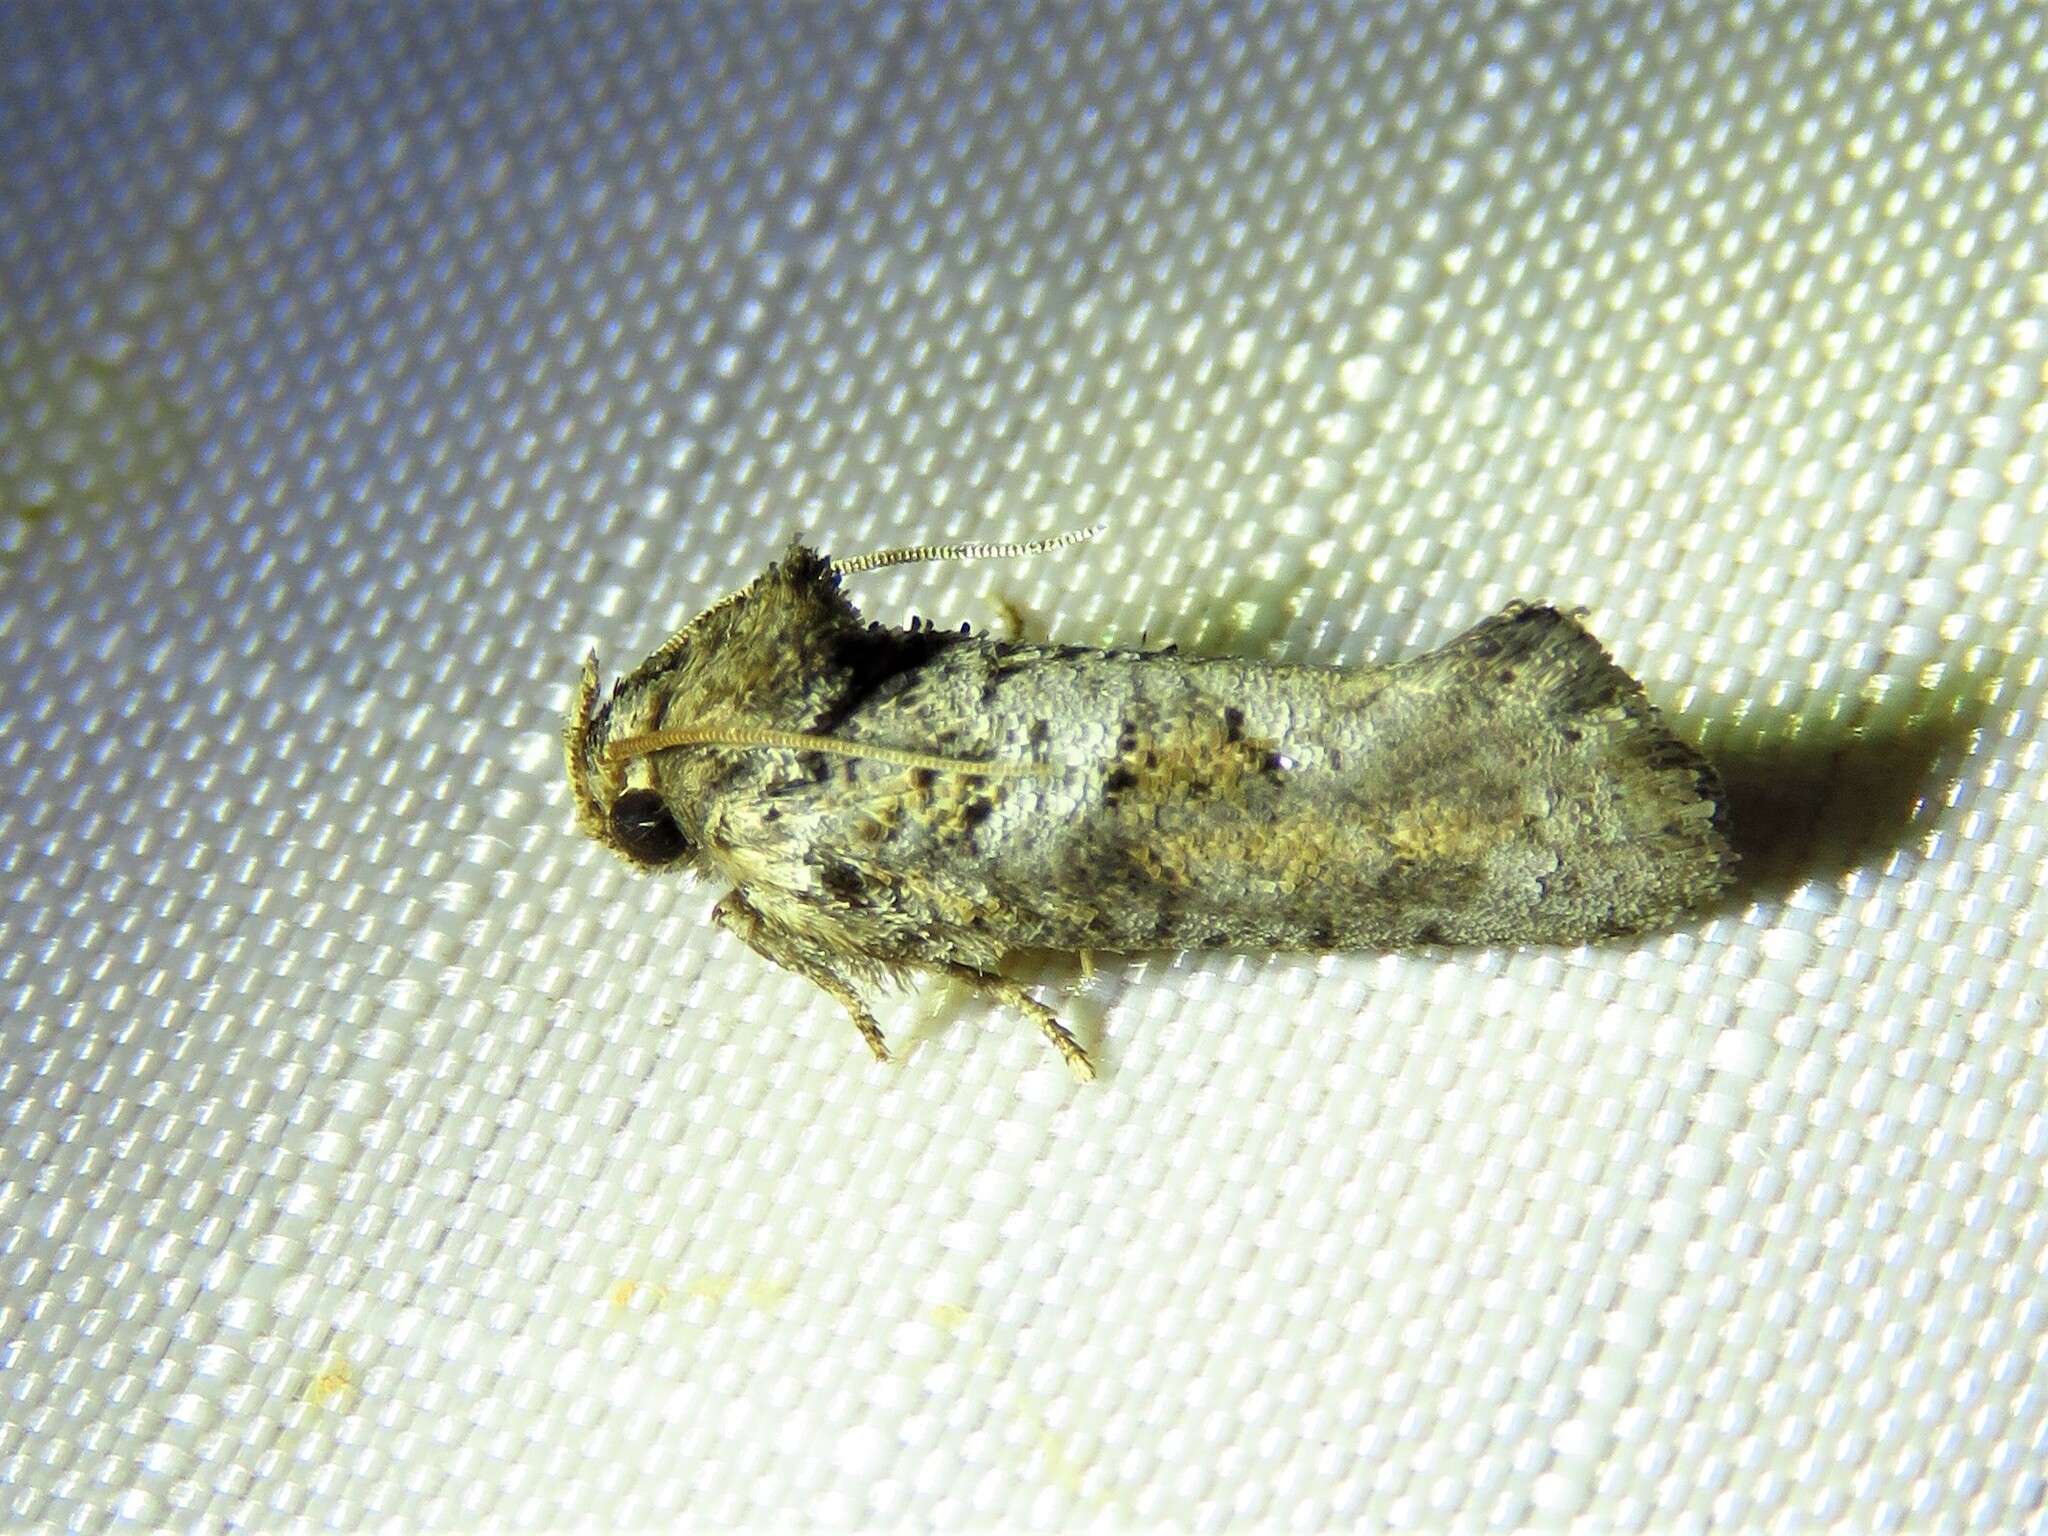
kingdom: Animalia
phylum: Arthropoda
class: Insecta
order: Lepidoptera
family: Tineidae
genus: Acrolophus
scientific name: Acrolophus piger
